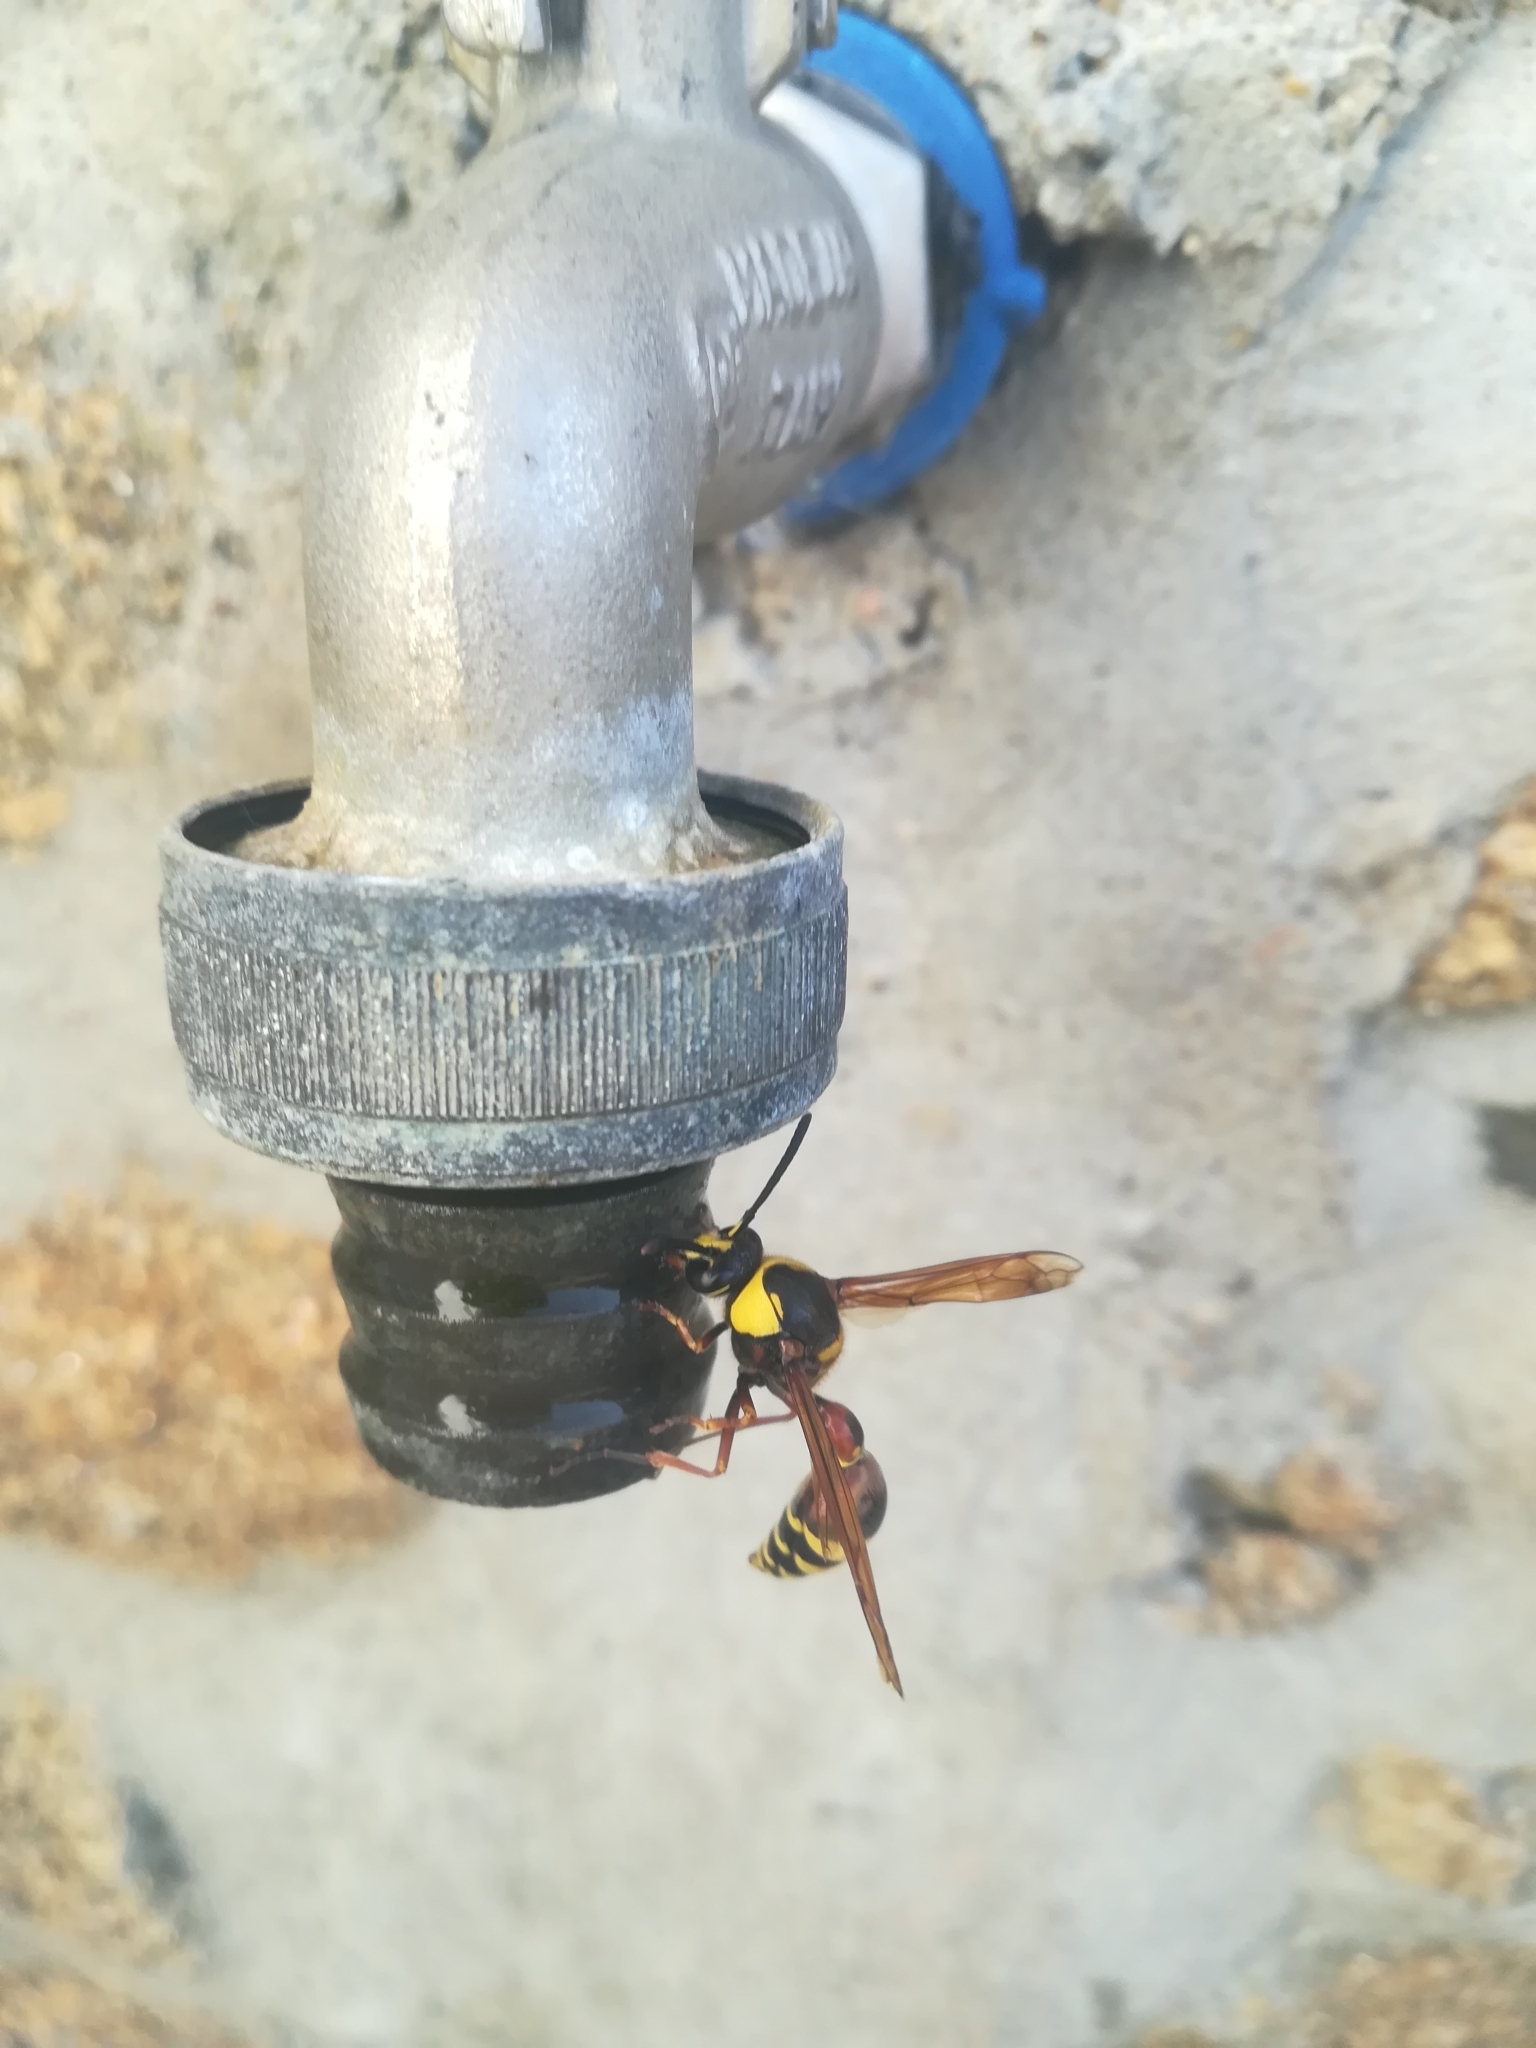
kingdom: Animalia
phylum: Arthropoda
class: Insecta
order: Hymenoptera
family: Eumenidae
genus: Delta
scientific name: Delta unguiculatum
